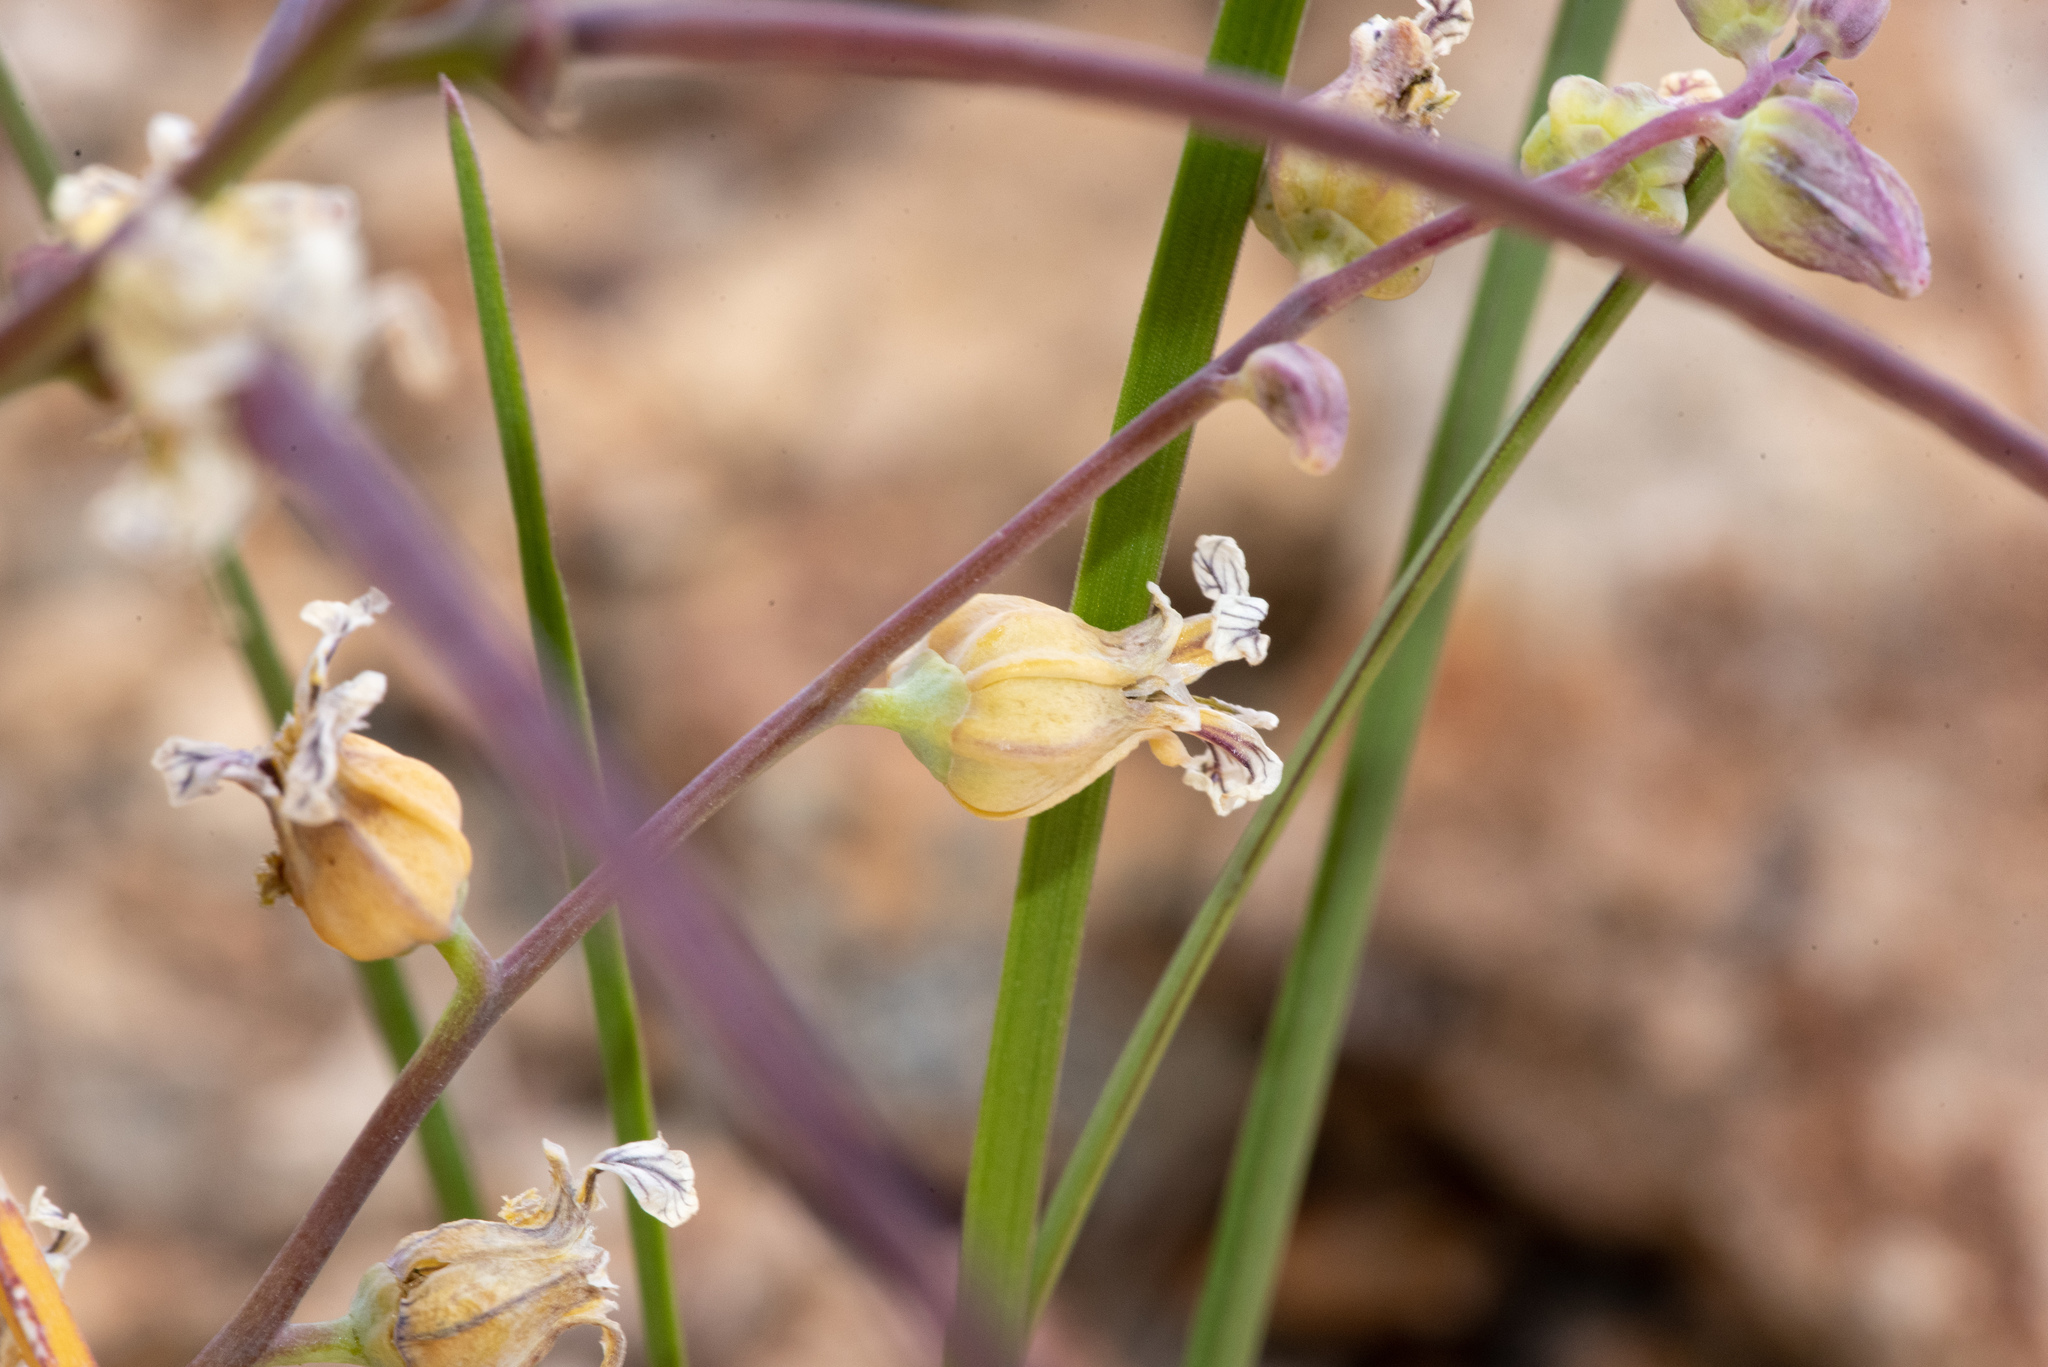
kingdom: Plantae
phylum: Tracheophyta
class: Magnoliopsida
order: Brassicales
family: Brassicaceae
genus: Streptanthus
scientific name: Streptanthus tortuosus
